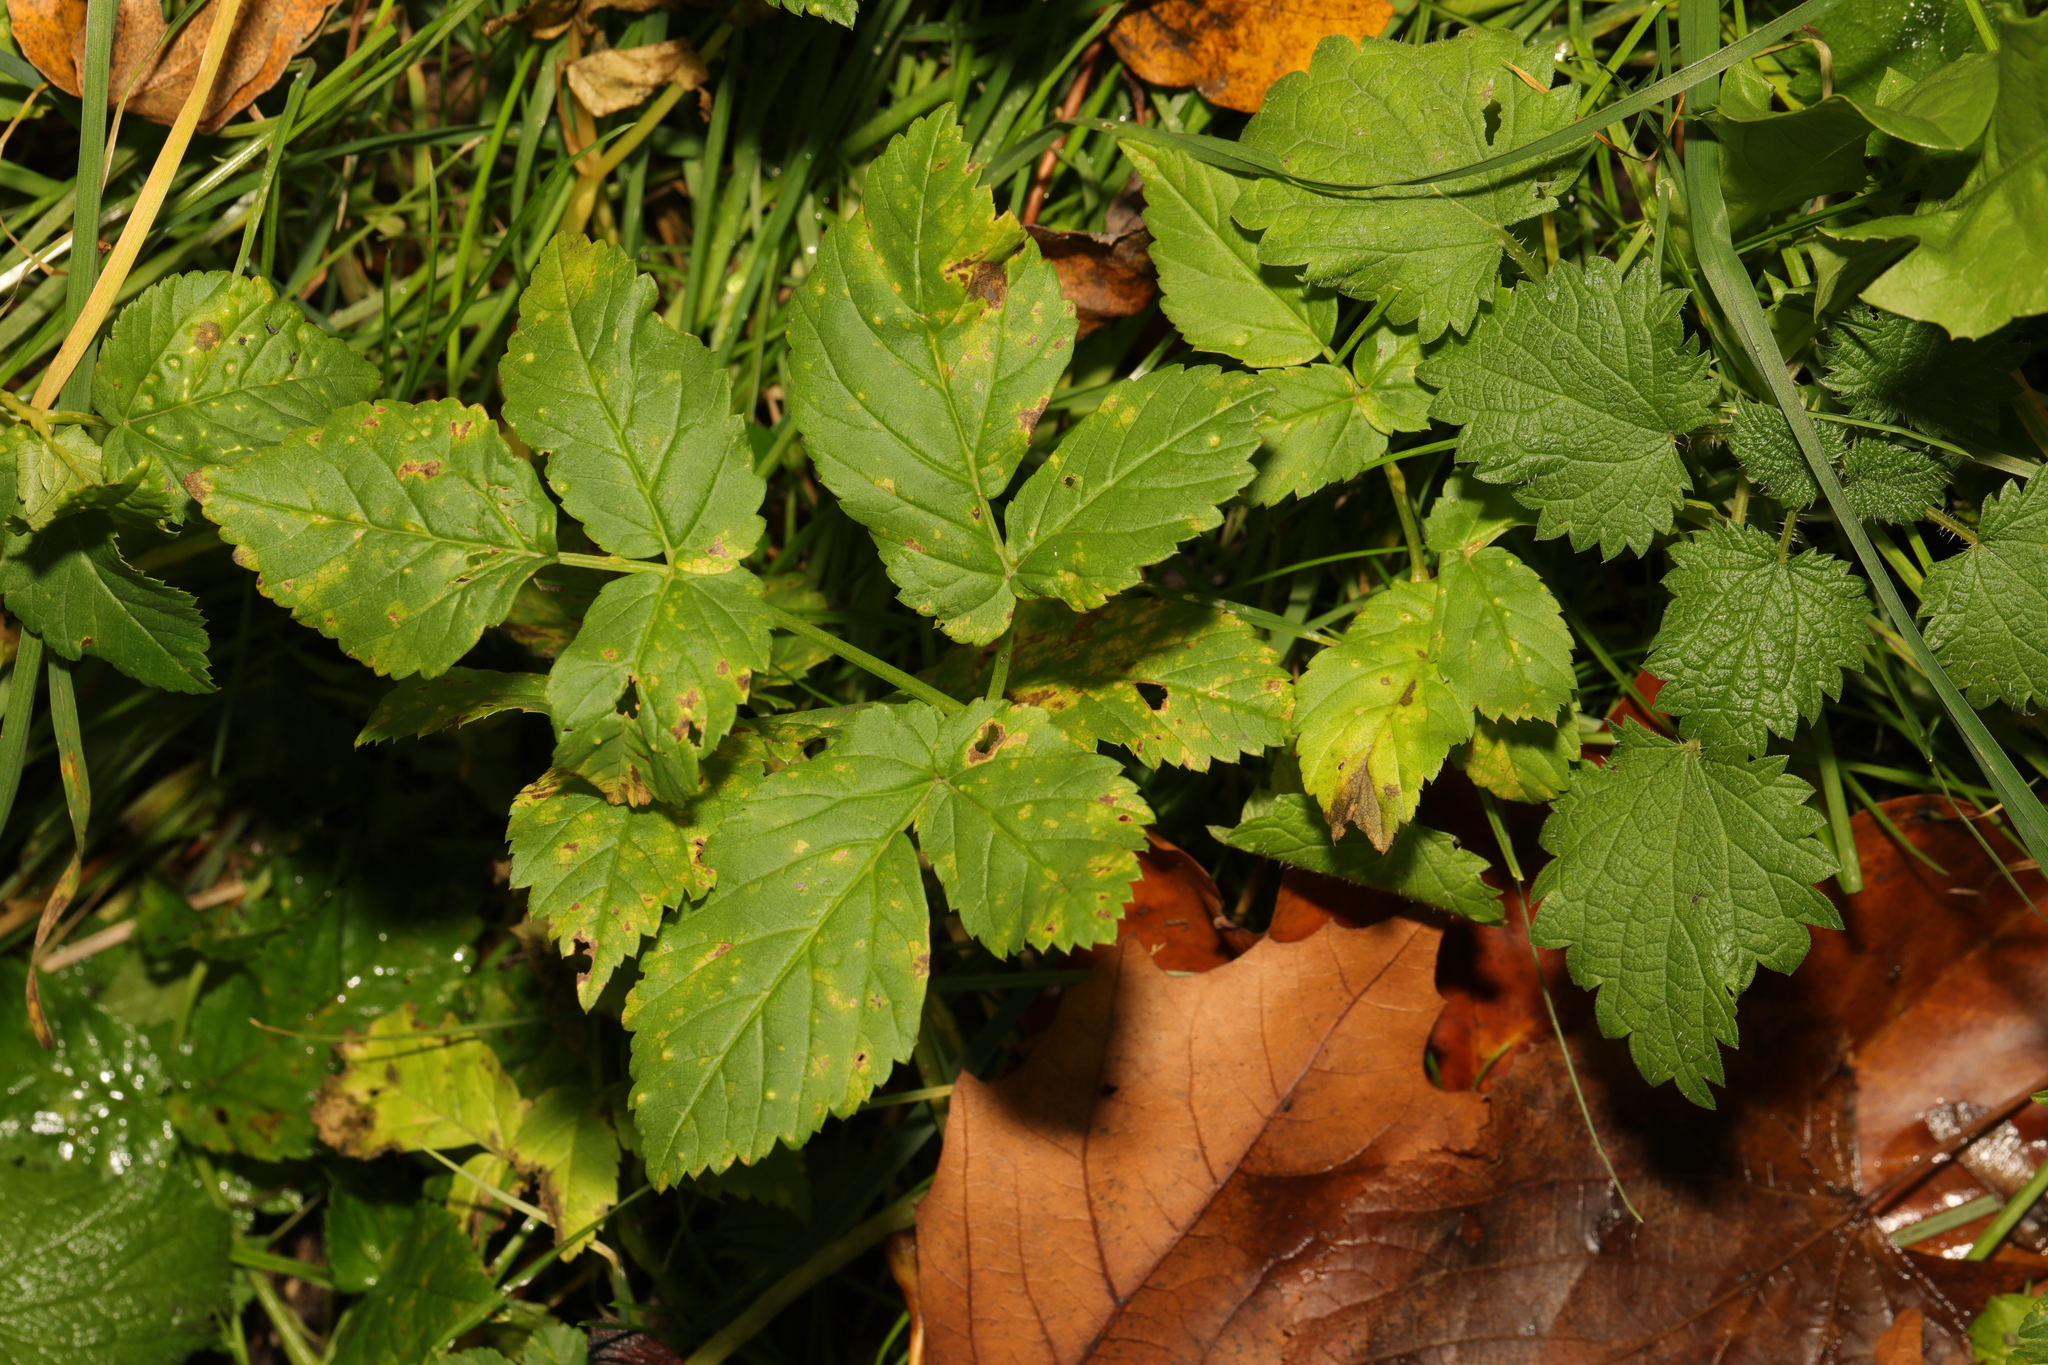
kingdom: Plantae
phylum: Tracheophyta
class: Magnoliopsida
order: Apiales
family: Apiaceae
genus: Aegopodium
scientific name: Aegopodium podagraria
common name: Ground-elder
